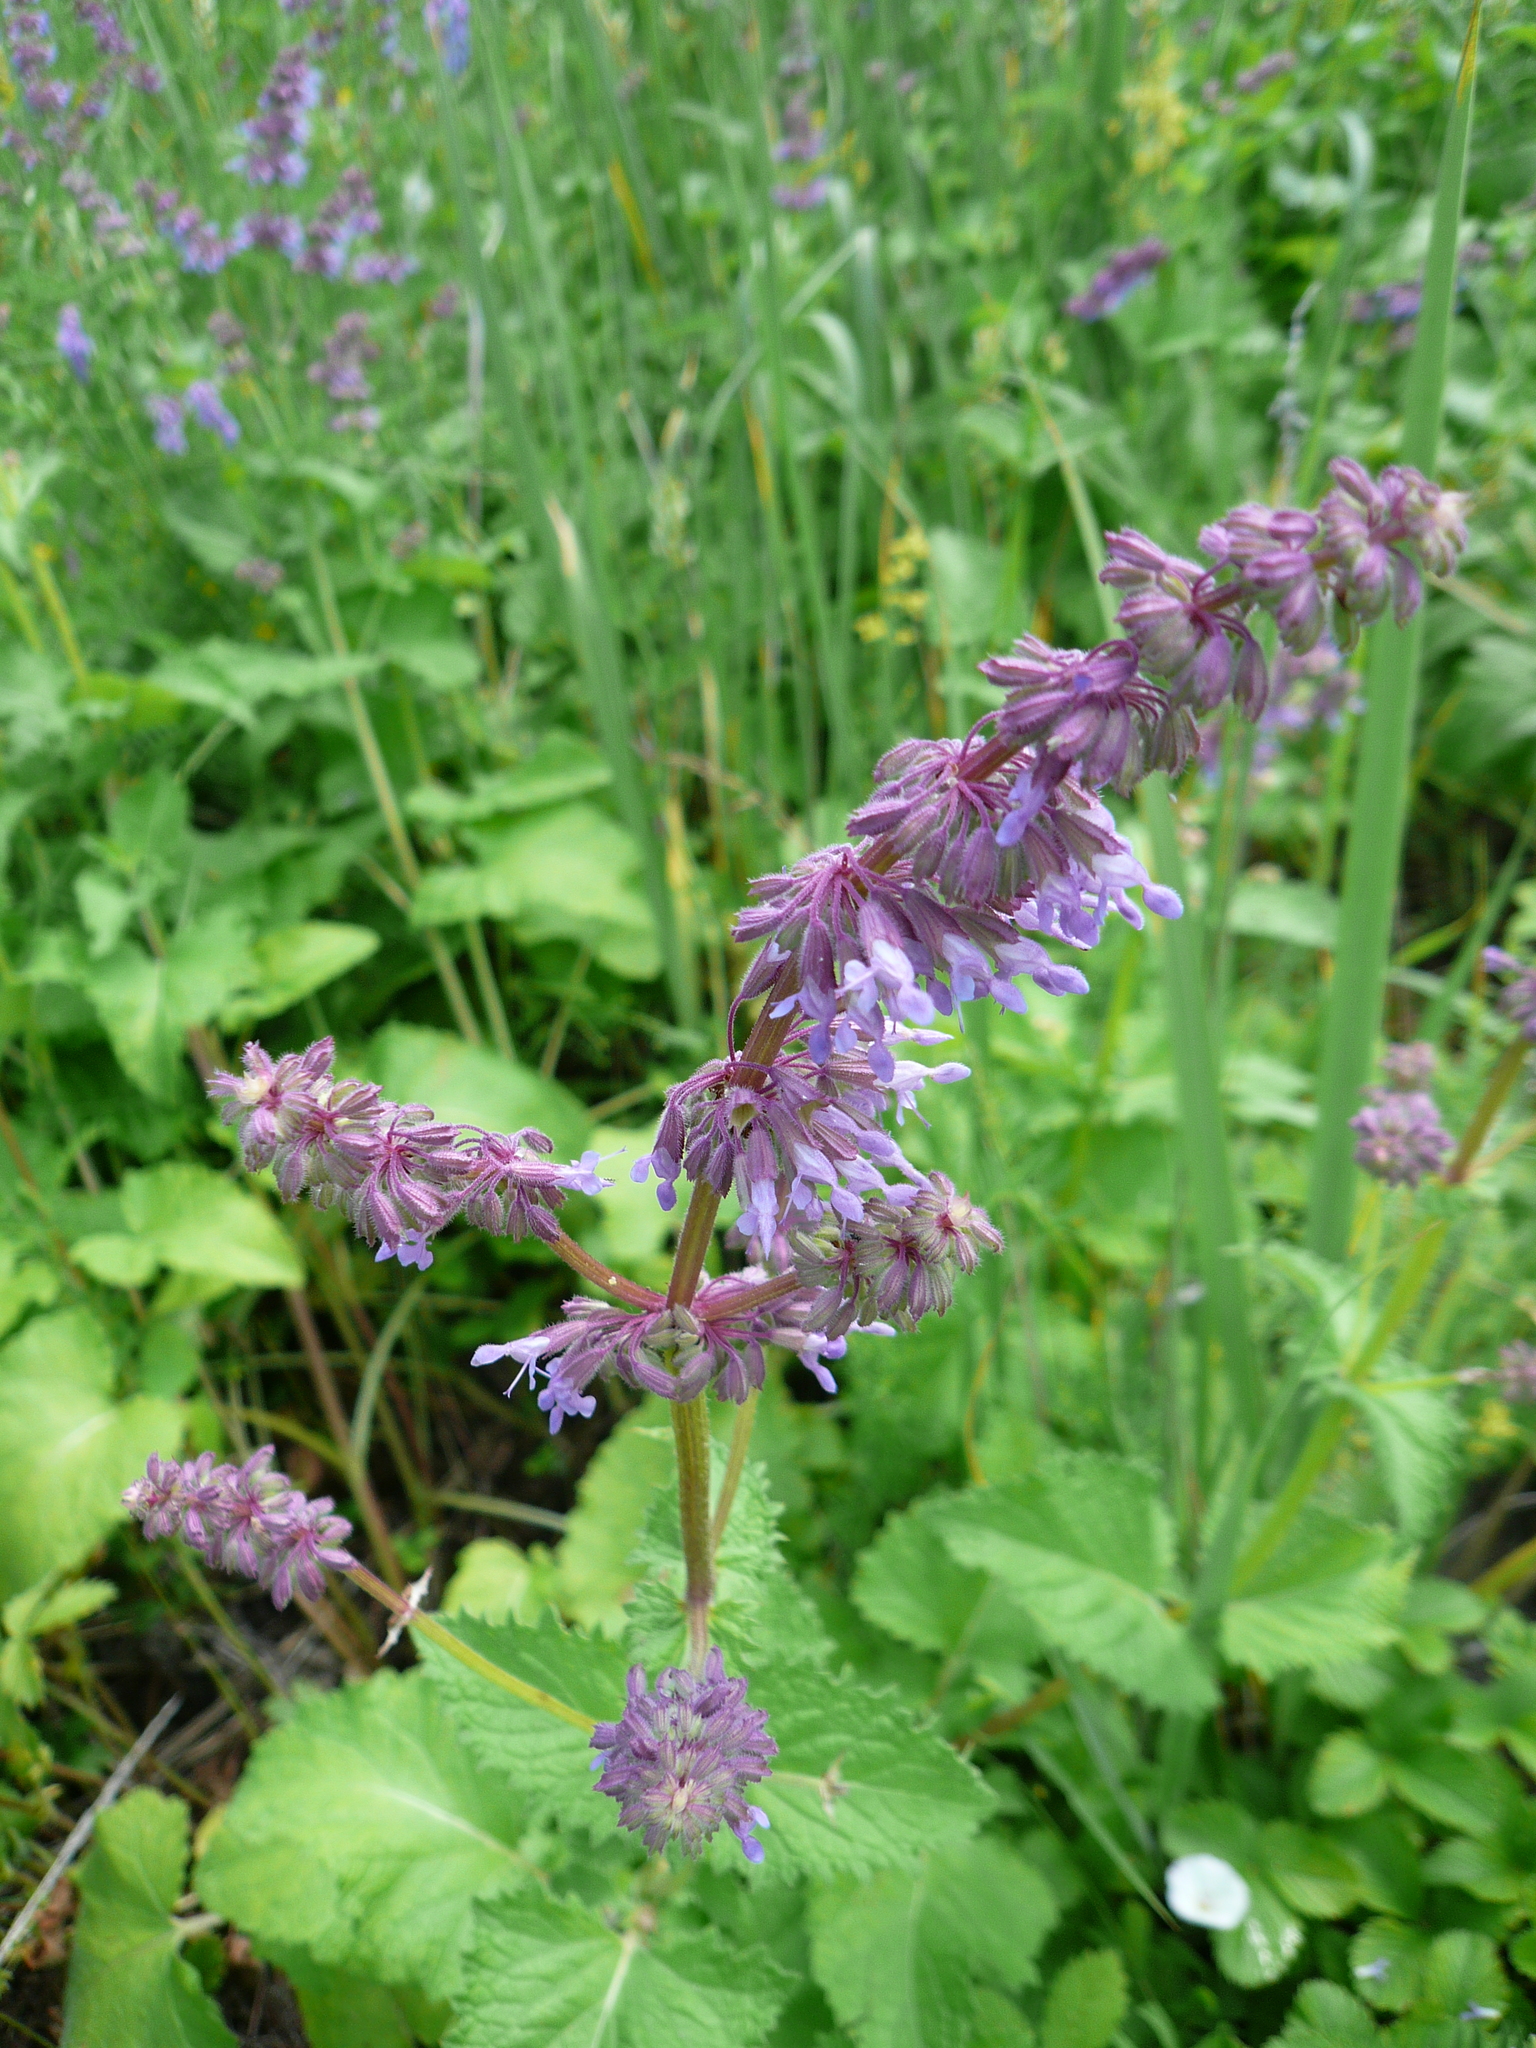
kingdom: Plantae
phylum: Tracheophyta
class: Magnoliopsida
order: Lamiales
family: Lamiaceae
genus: Salvia
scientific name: Salvia verticillata
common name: Whorled clary
